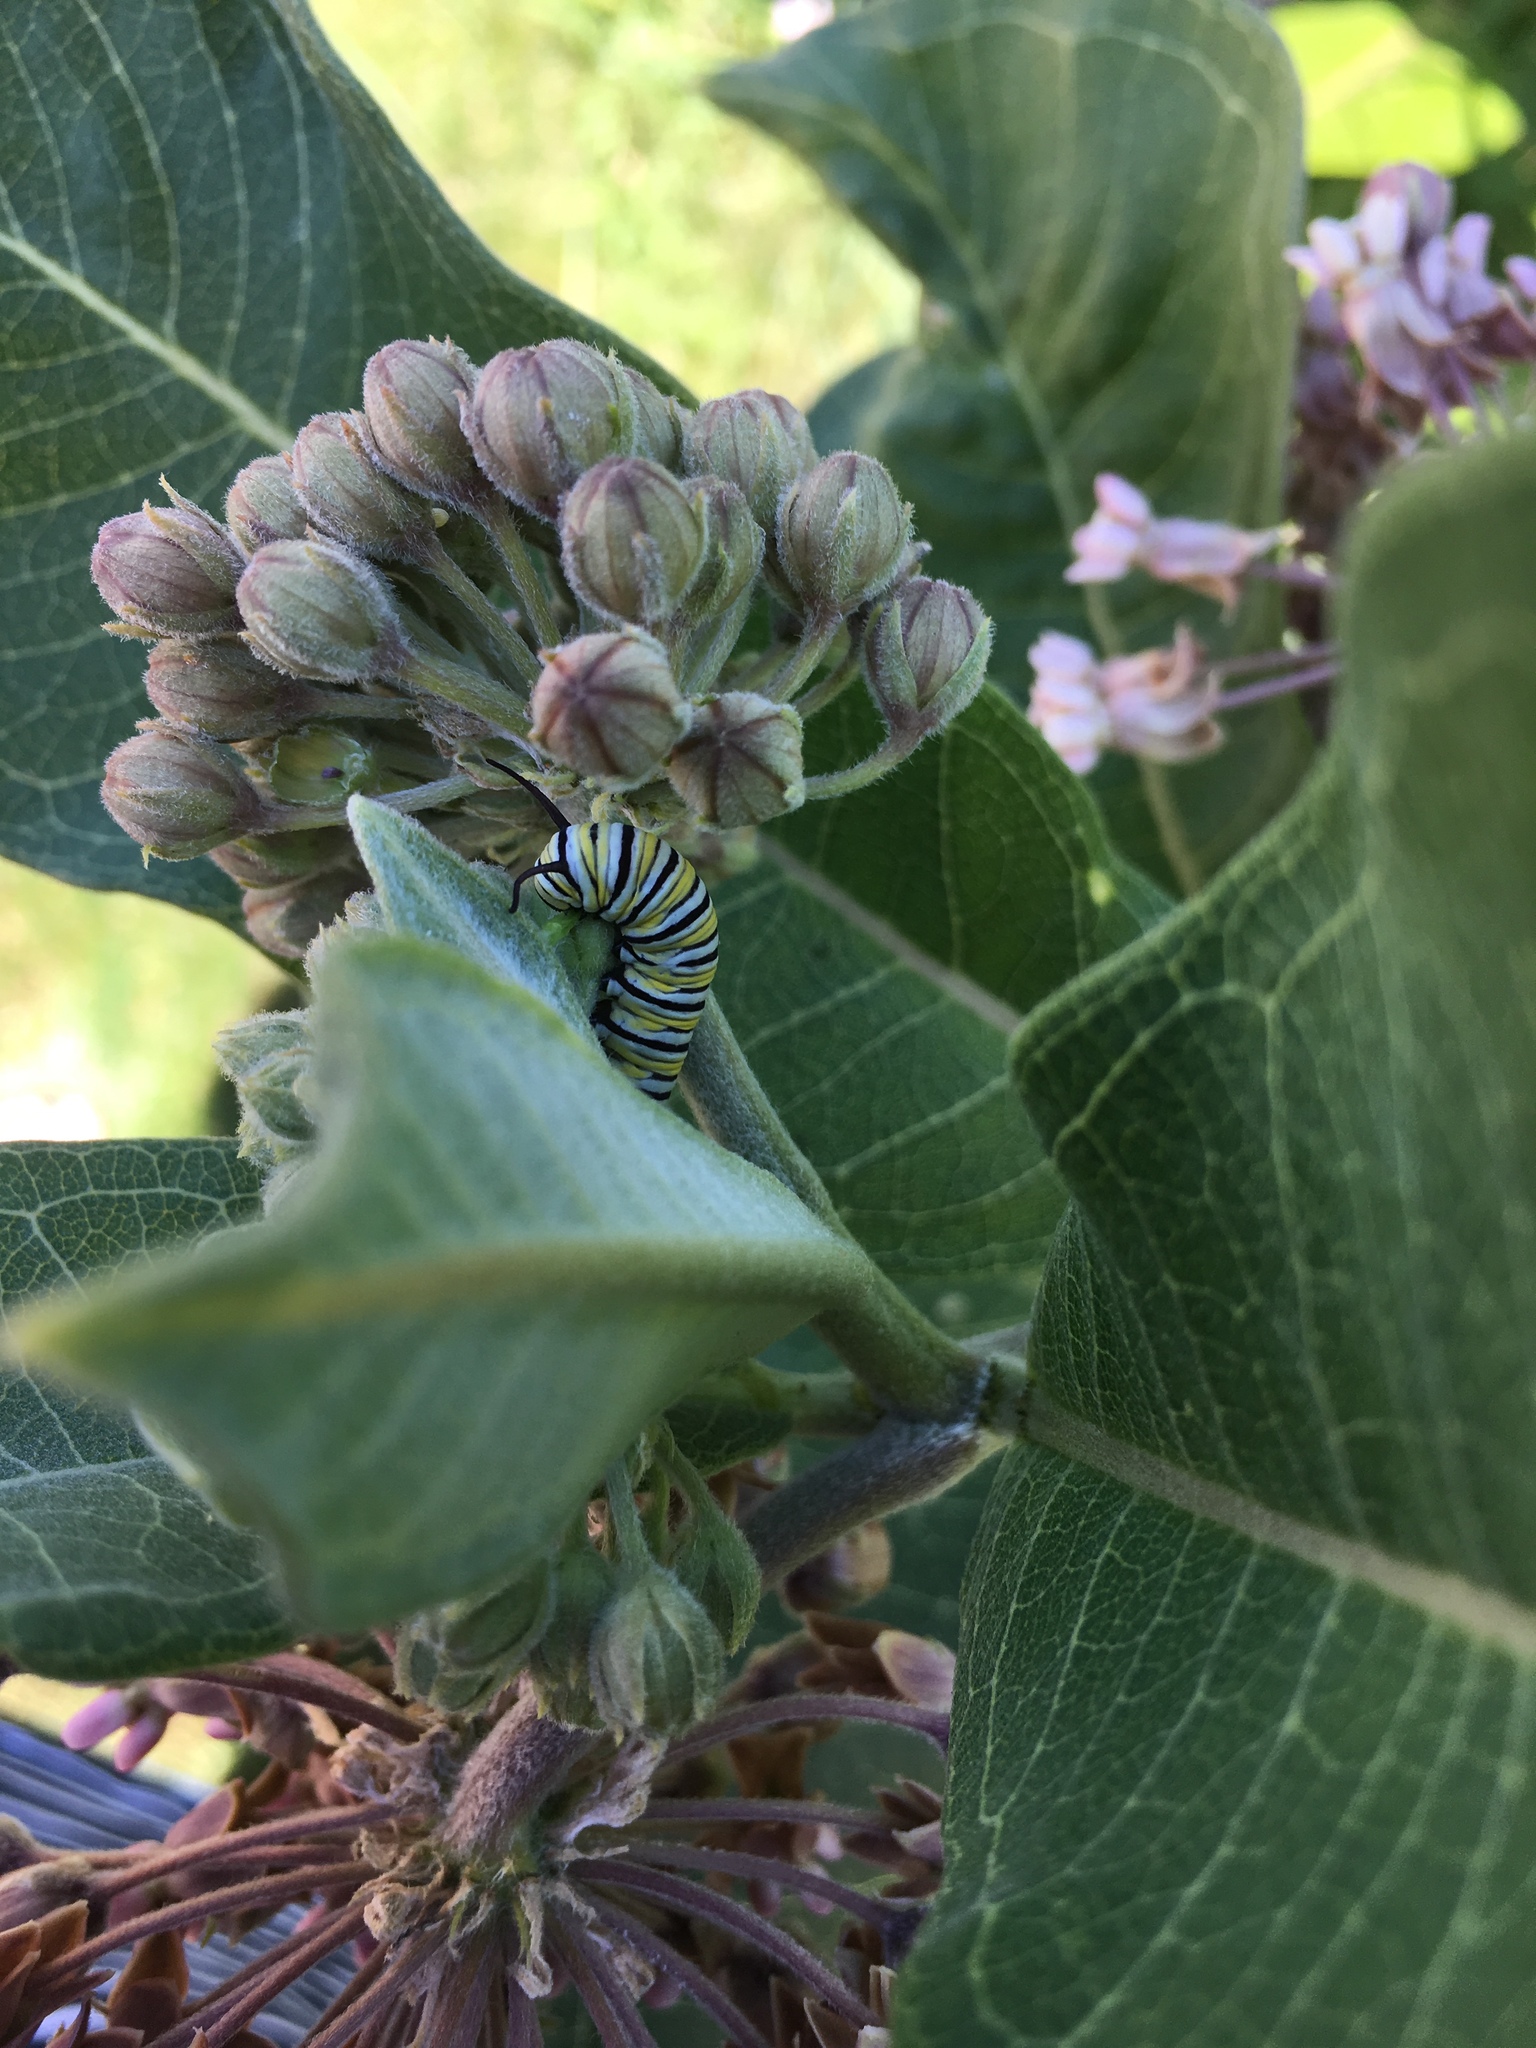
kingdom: Animalia
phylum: Arthropoda
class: Insecta
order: Lepidoptera
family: Nymphalidae
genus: Danaus
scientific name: Danaus plexippus
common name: Monarch
